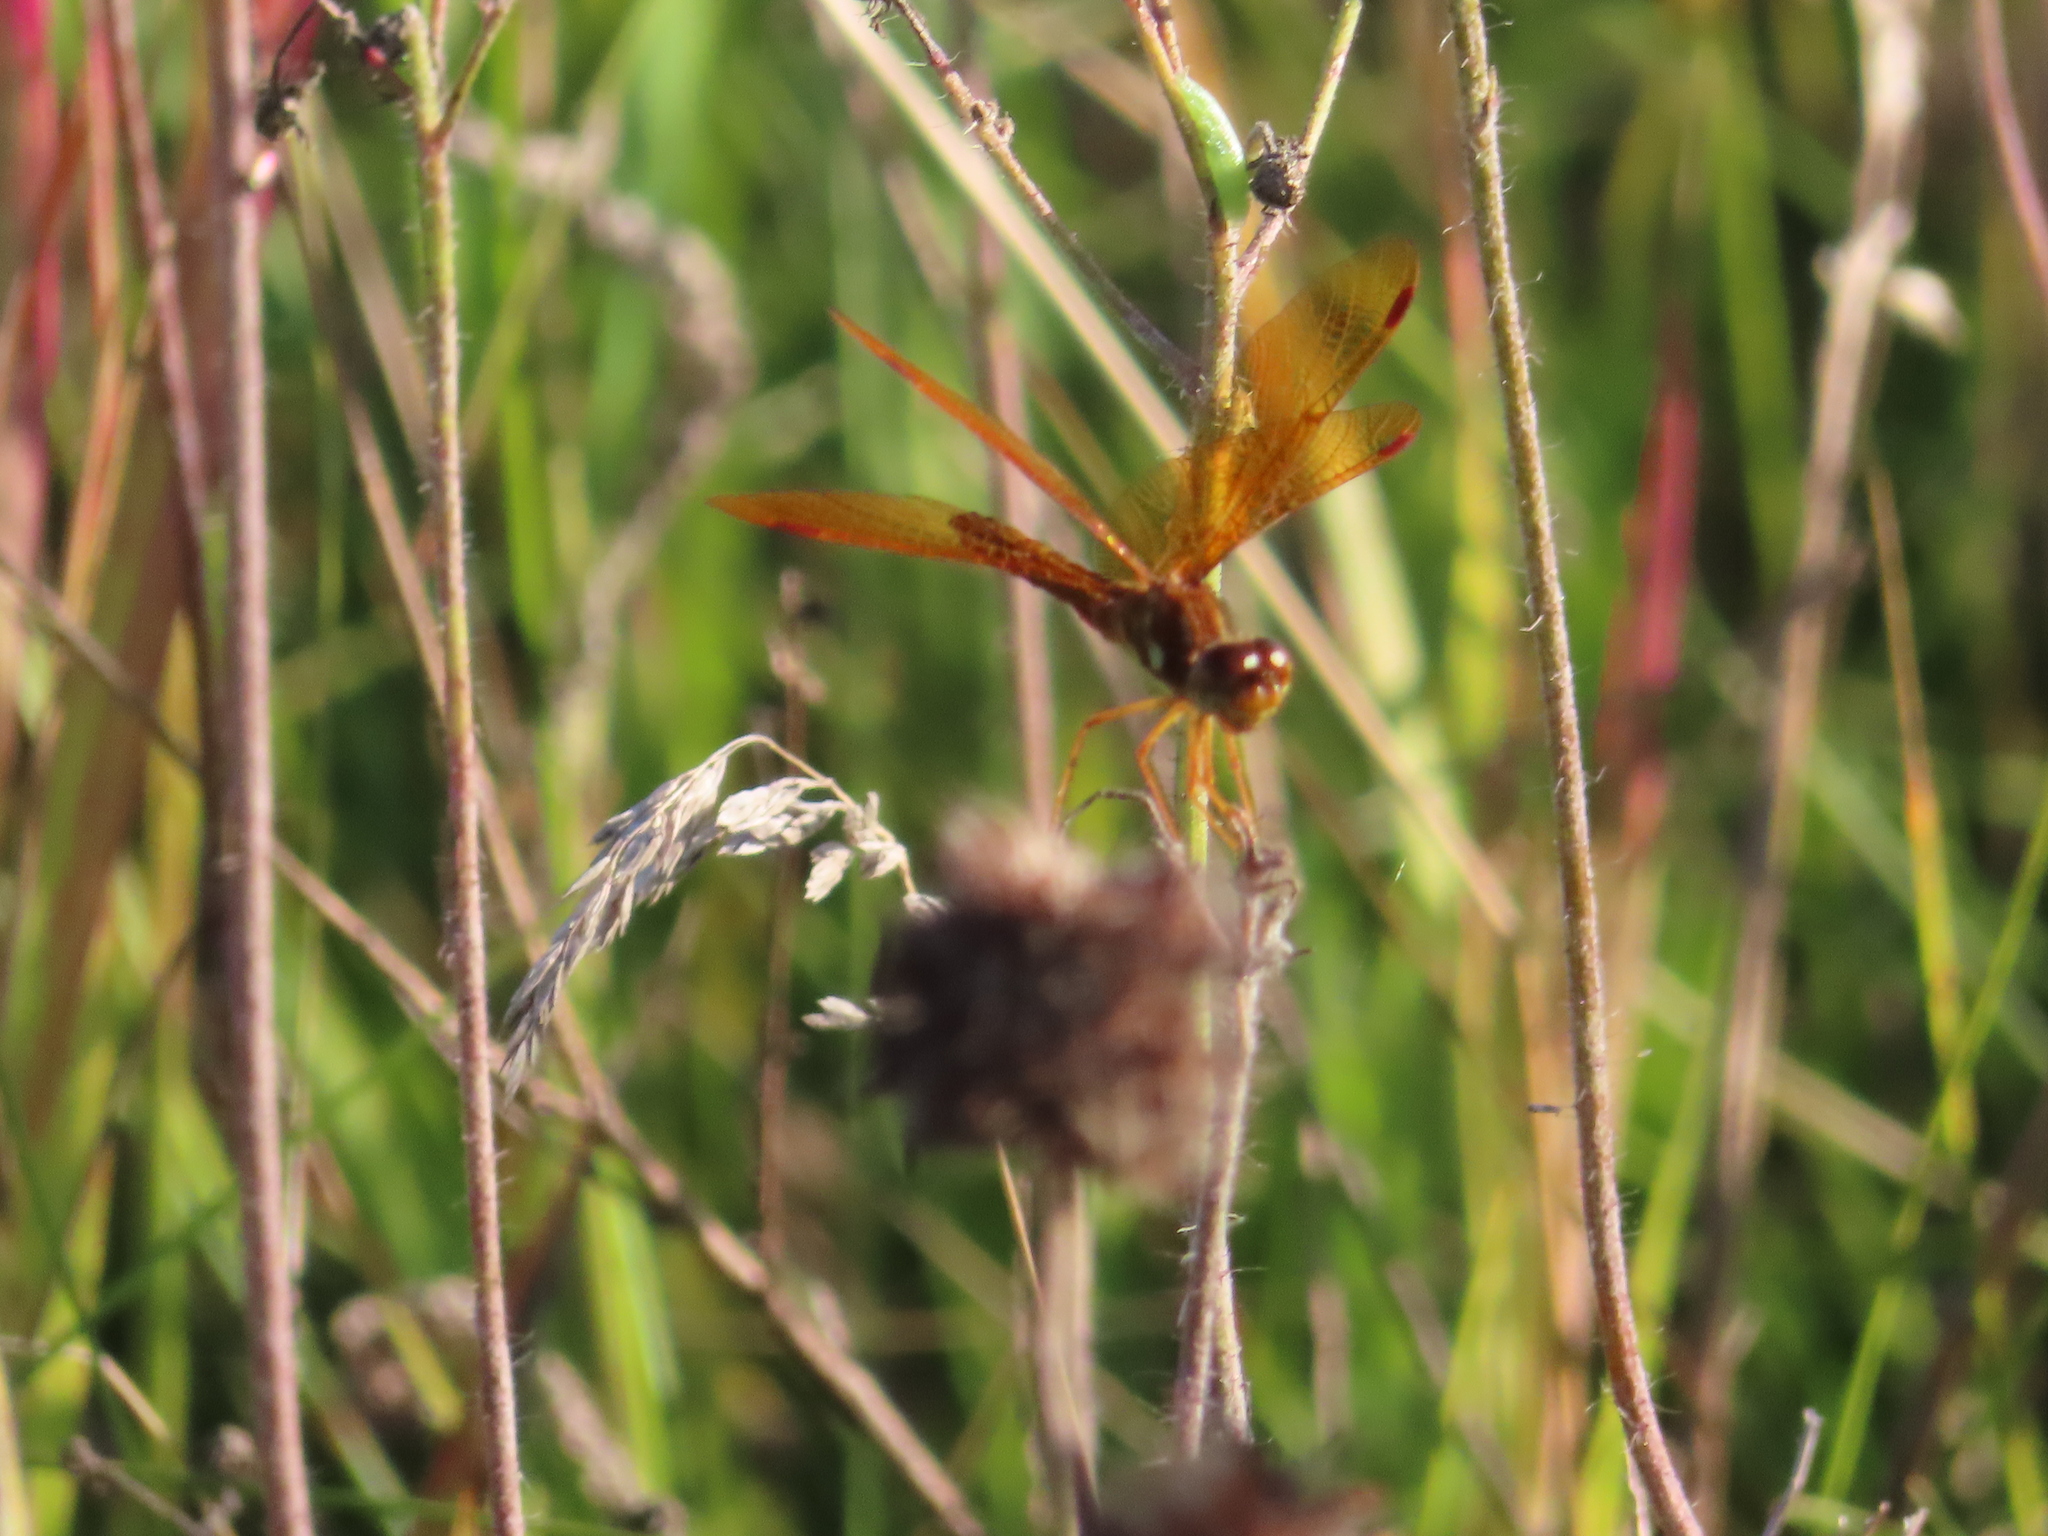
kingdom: Animalia
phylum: Arthropoda
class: Insecta
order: Odonata
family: Libellulidae
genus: Perithemis
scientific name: Perithemis tenera
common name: Eastern amberwing
